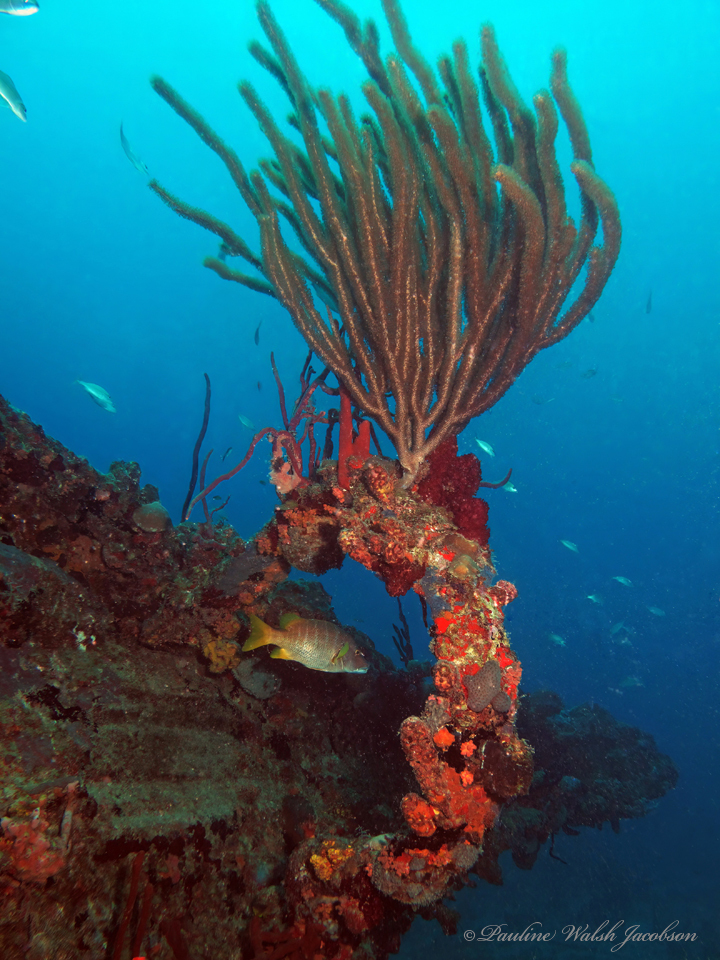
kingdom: Animalia
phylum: Chordata
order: Perciformes
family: Lutjanidae
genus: Lutjanus
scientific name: Lutjanus apodus
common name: Schoolmaster
